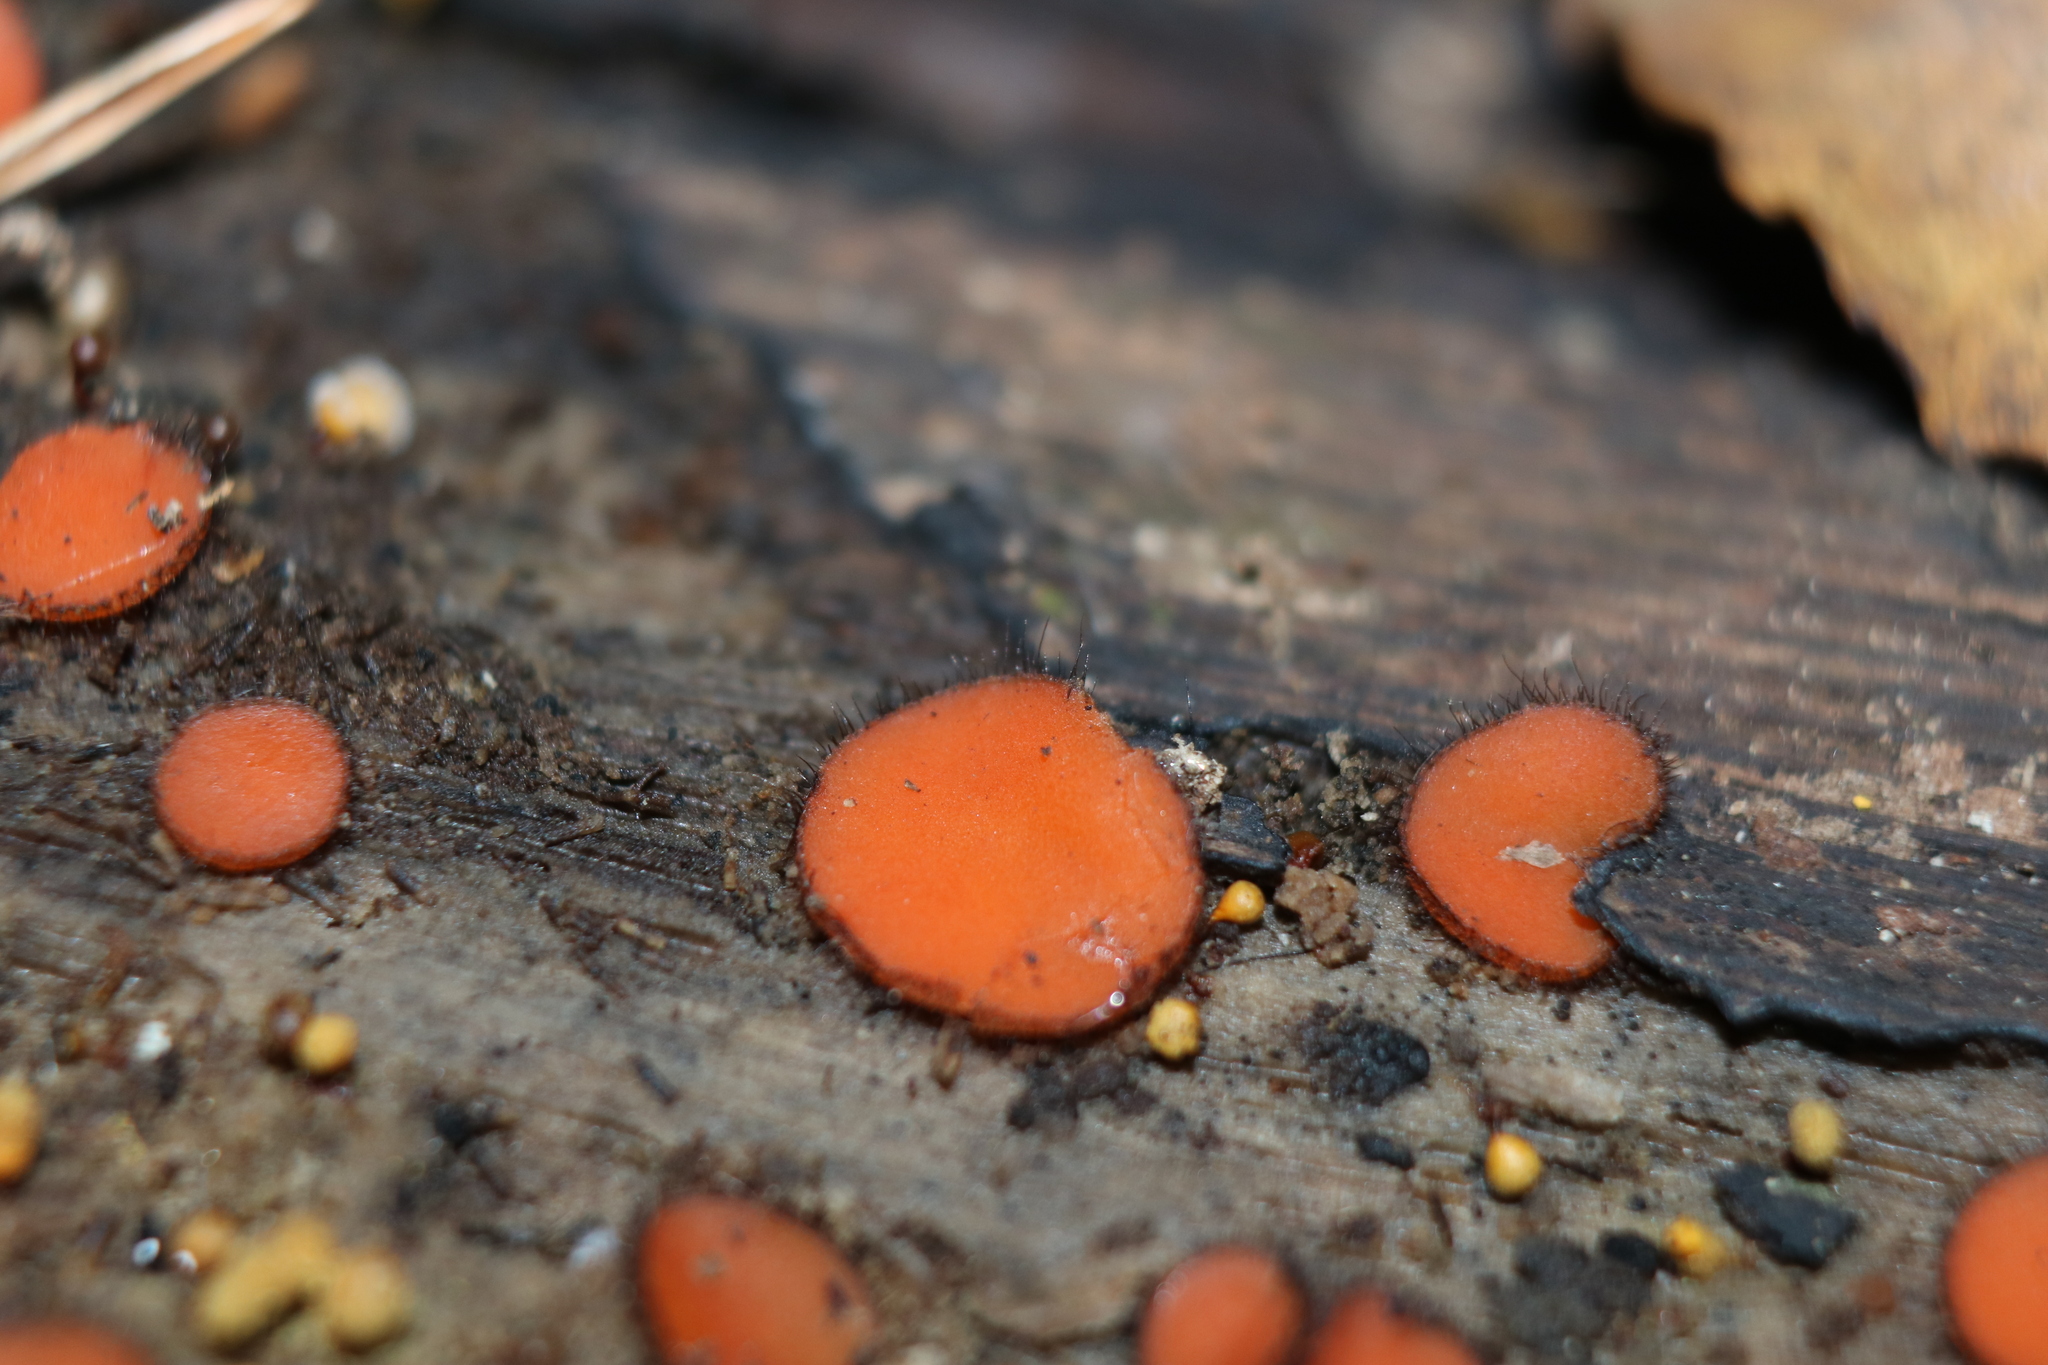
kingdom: Fungi
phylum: Ascomycota
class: Pezizomycetes
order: Pezizales
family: Pyronemataceae
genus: Scutellinia
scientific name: Scutellinia
